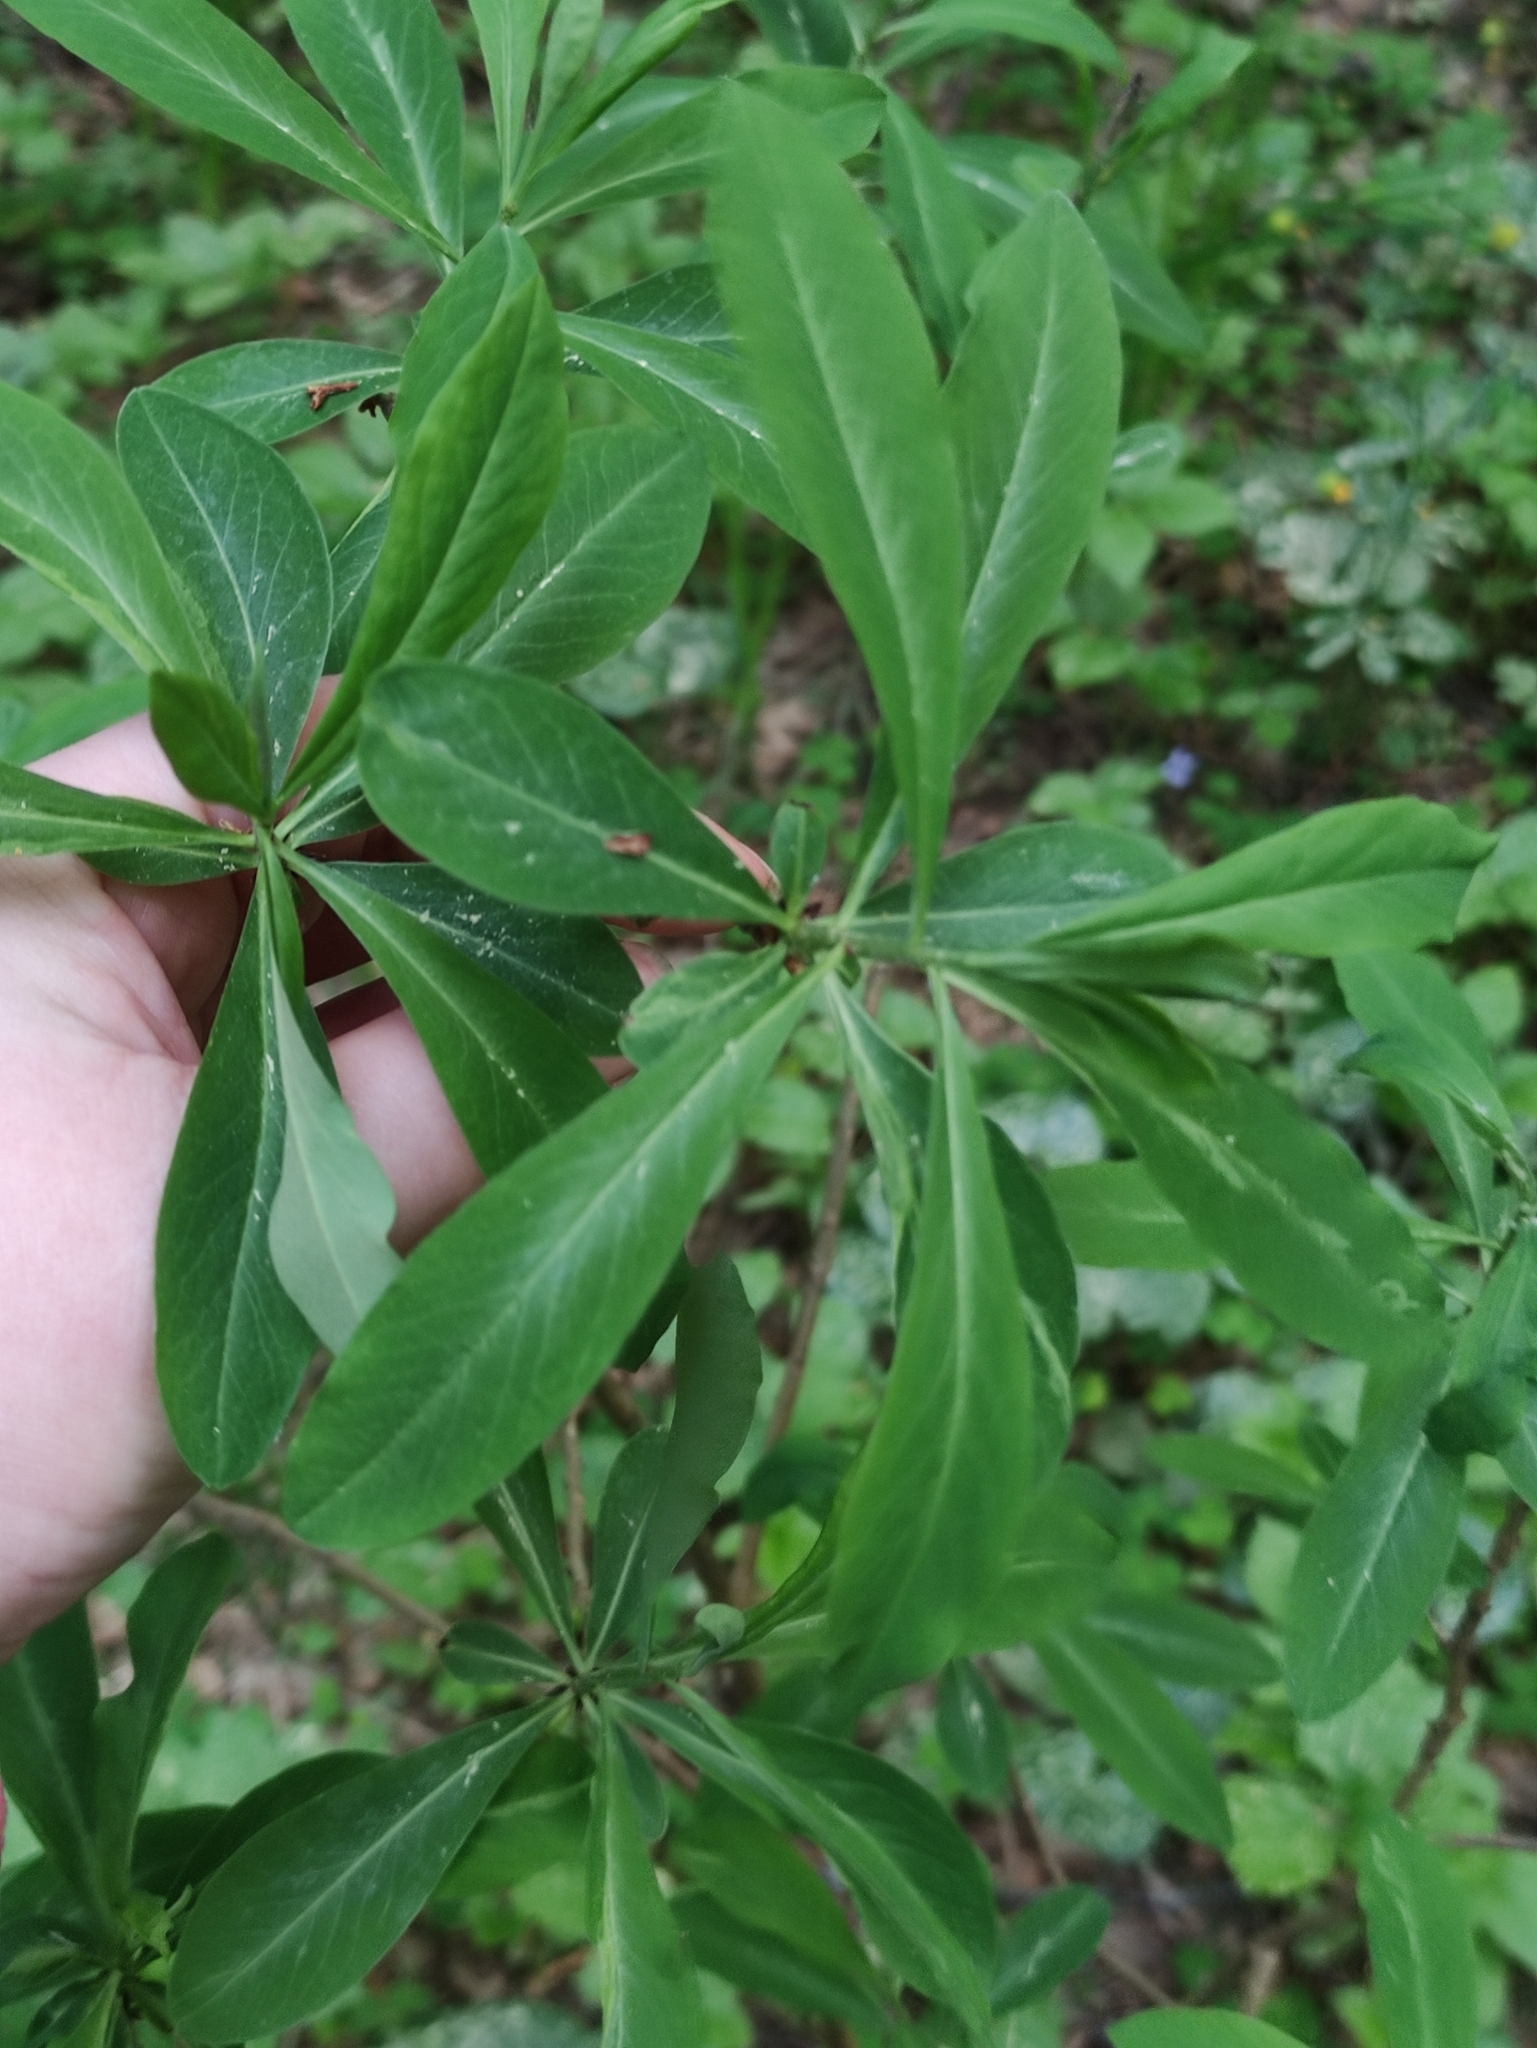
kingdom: Plantae
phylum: Tracheophyta
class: Magnoliopsida
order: Malvales
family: Thymelaeaceae
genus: Daphne
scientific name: Daphne mezereum
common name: Mezereon
